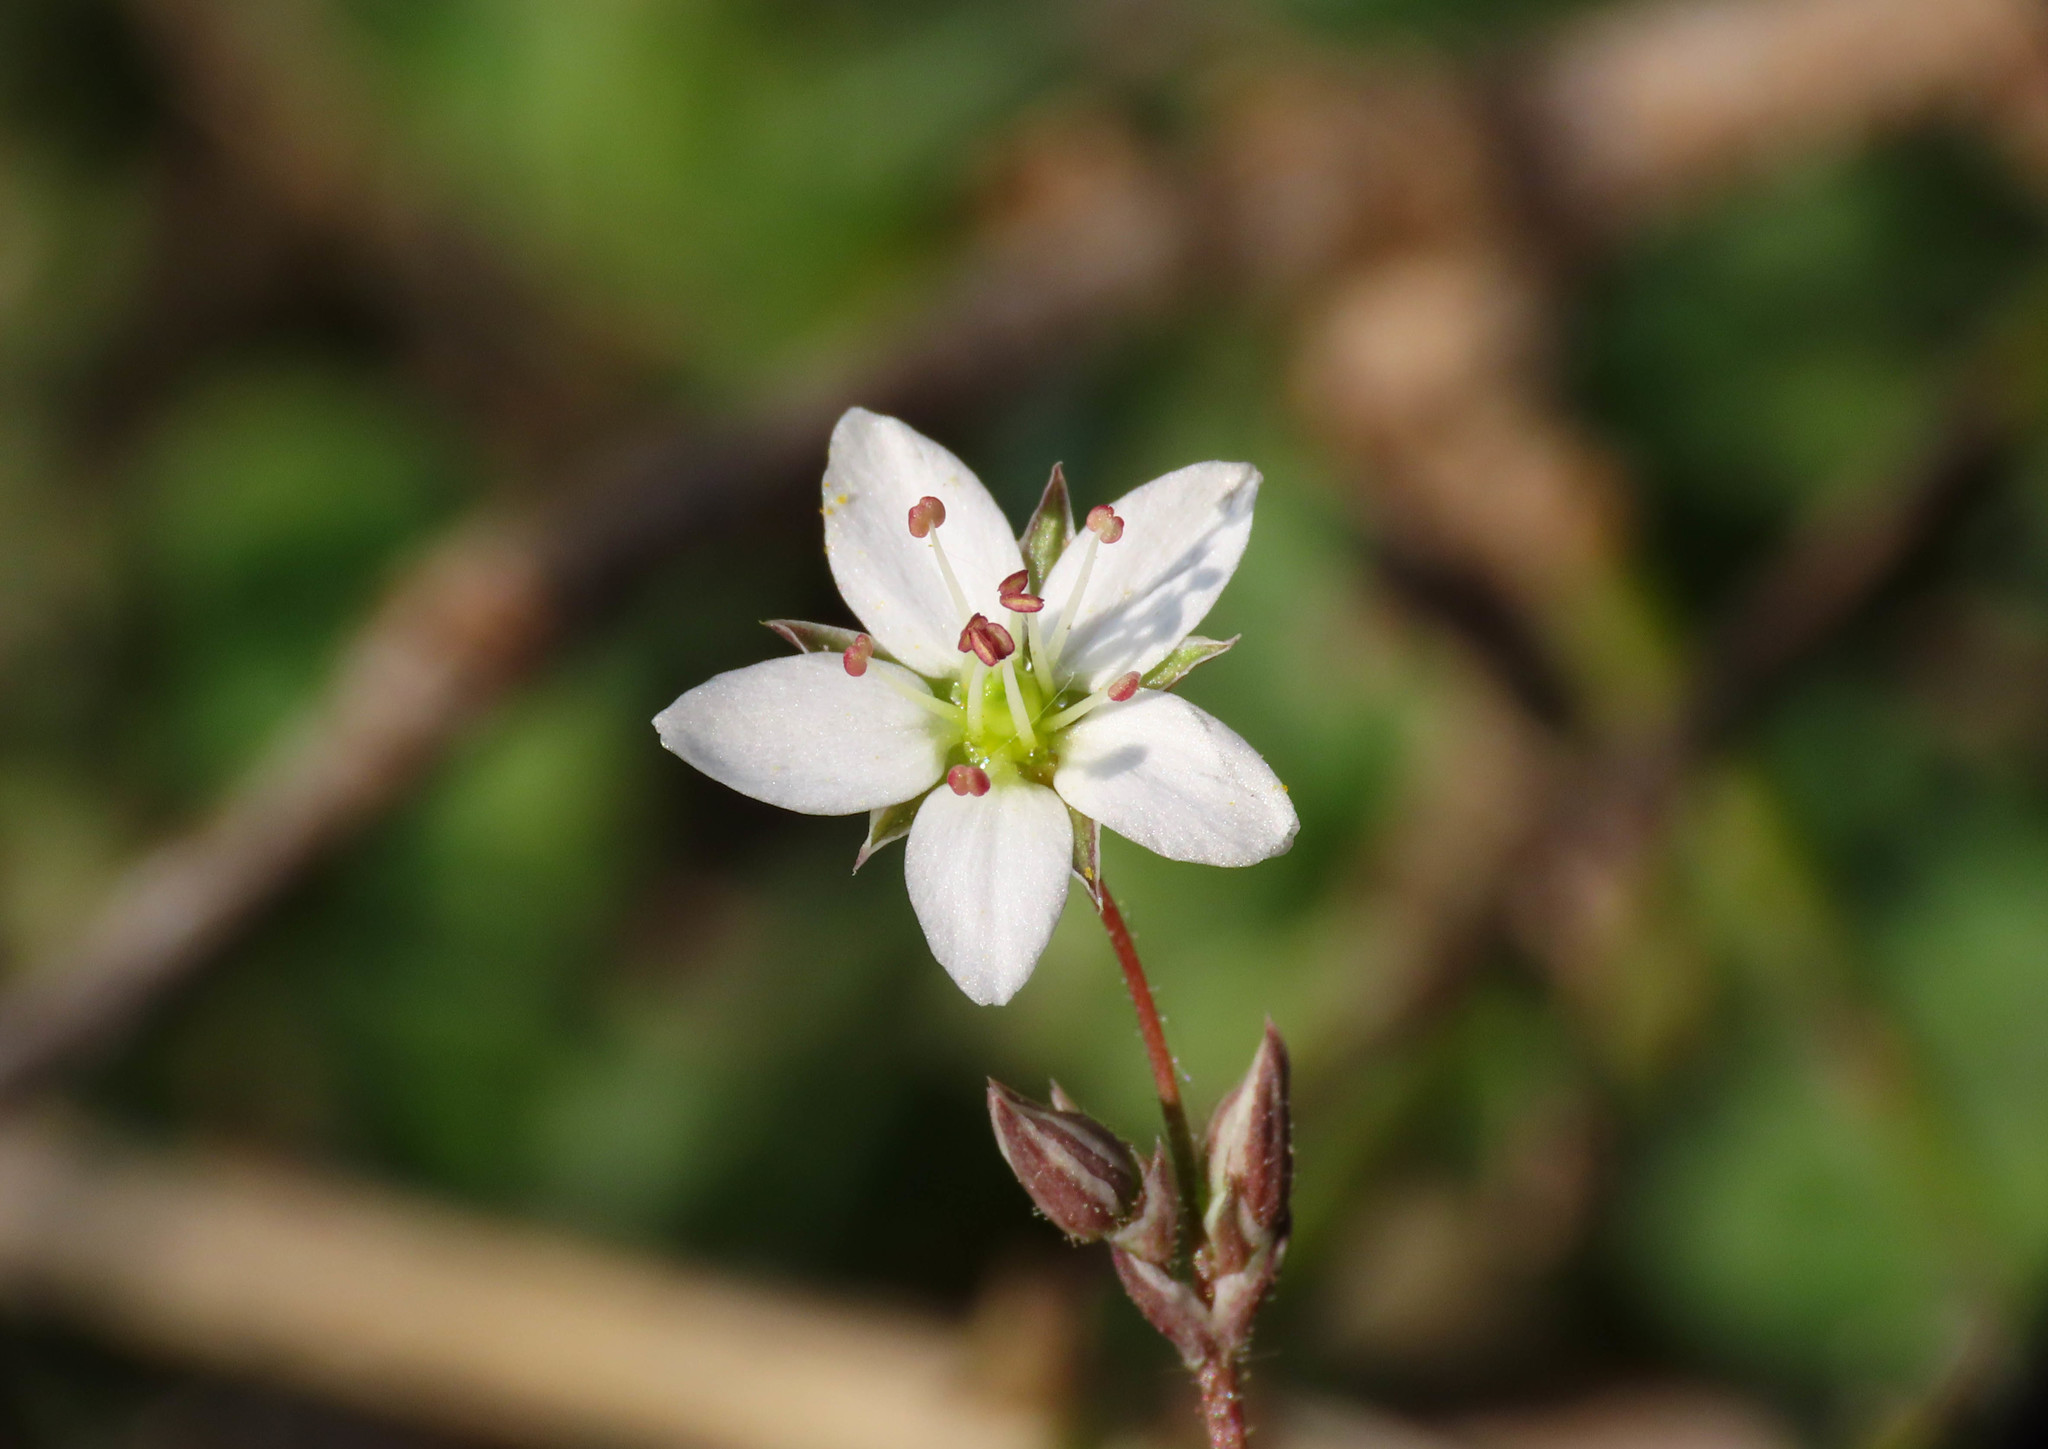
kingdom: Plantae
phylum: Tracheophyta
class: Magnoliopsida
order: Caryophyllales
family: Caryophyllaceae
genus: Sabulina
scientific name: Sabulina verna
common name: Spring sandwort
